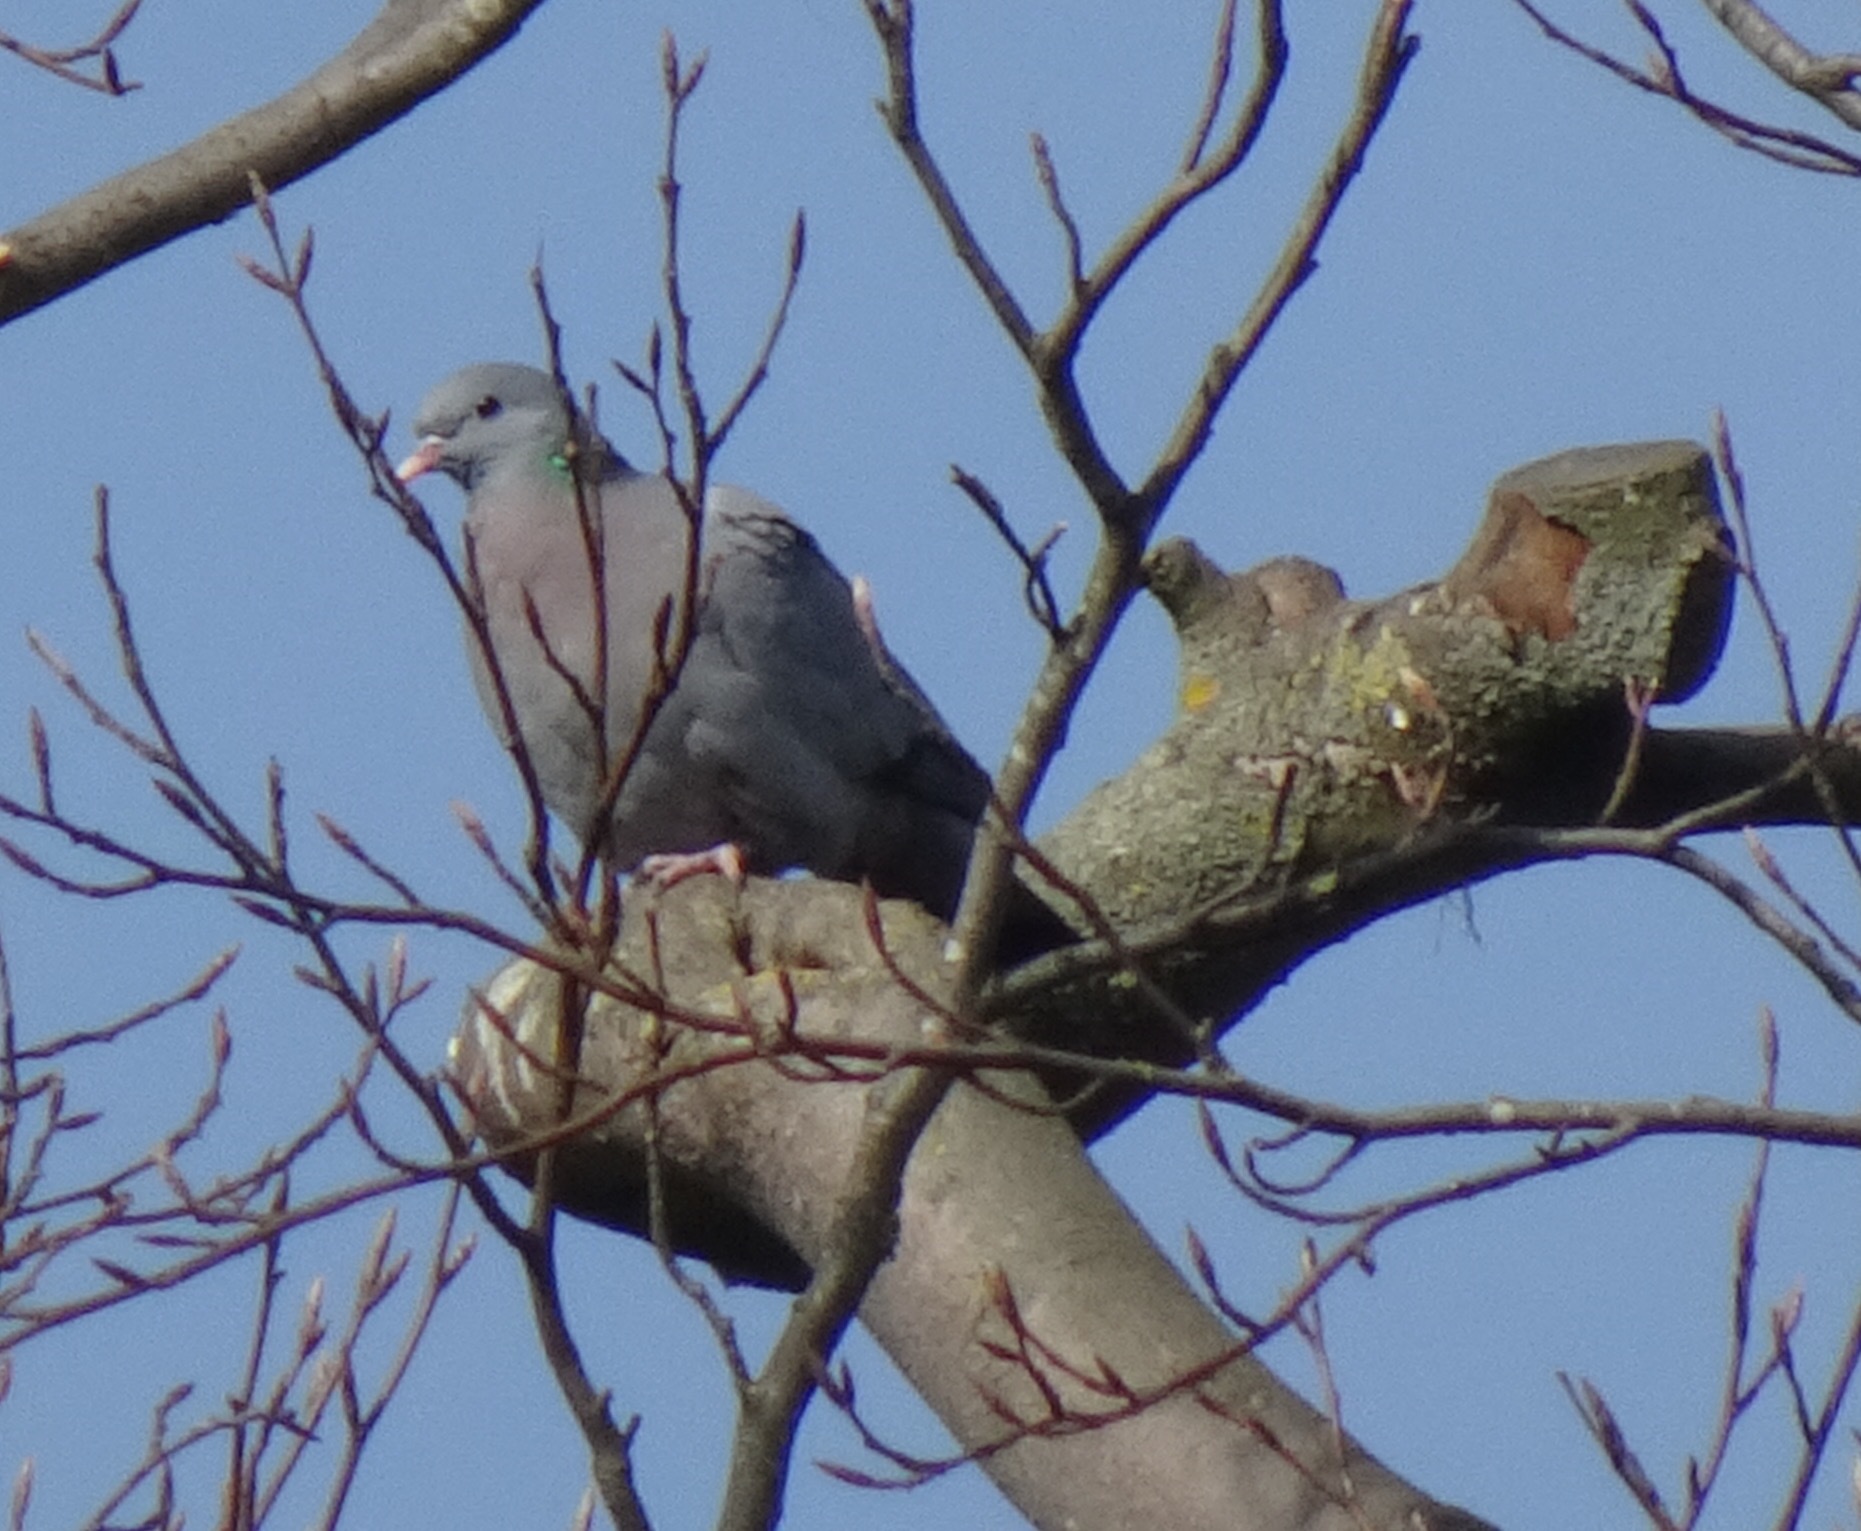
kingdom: Animalia
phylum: Chordata
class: Aves
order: Columbiformes
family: Columbidae
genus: Columba
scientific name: Columba oenas
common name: Stock dove
